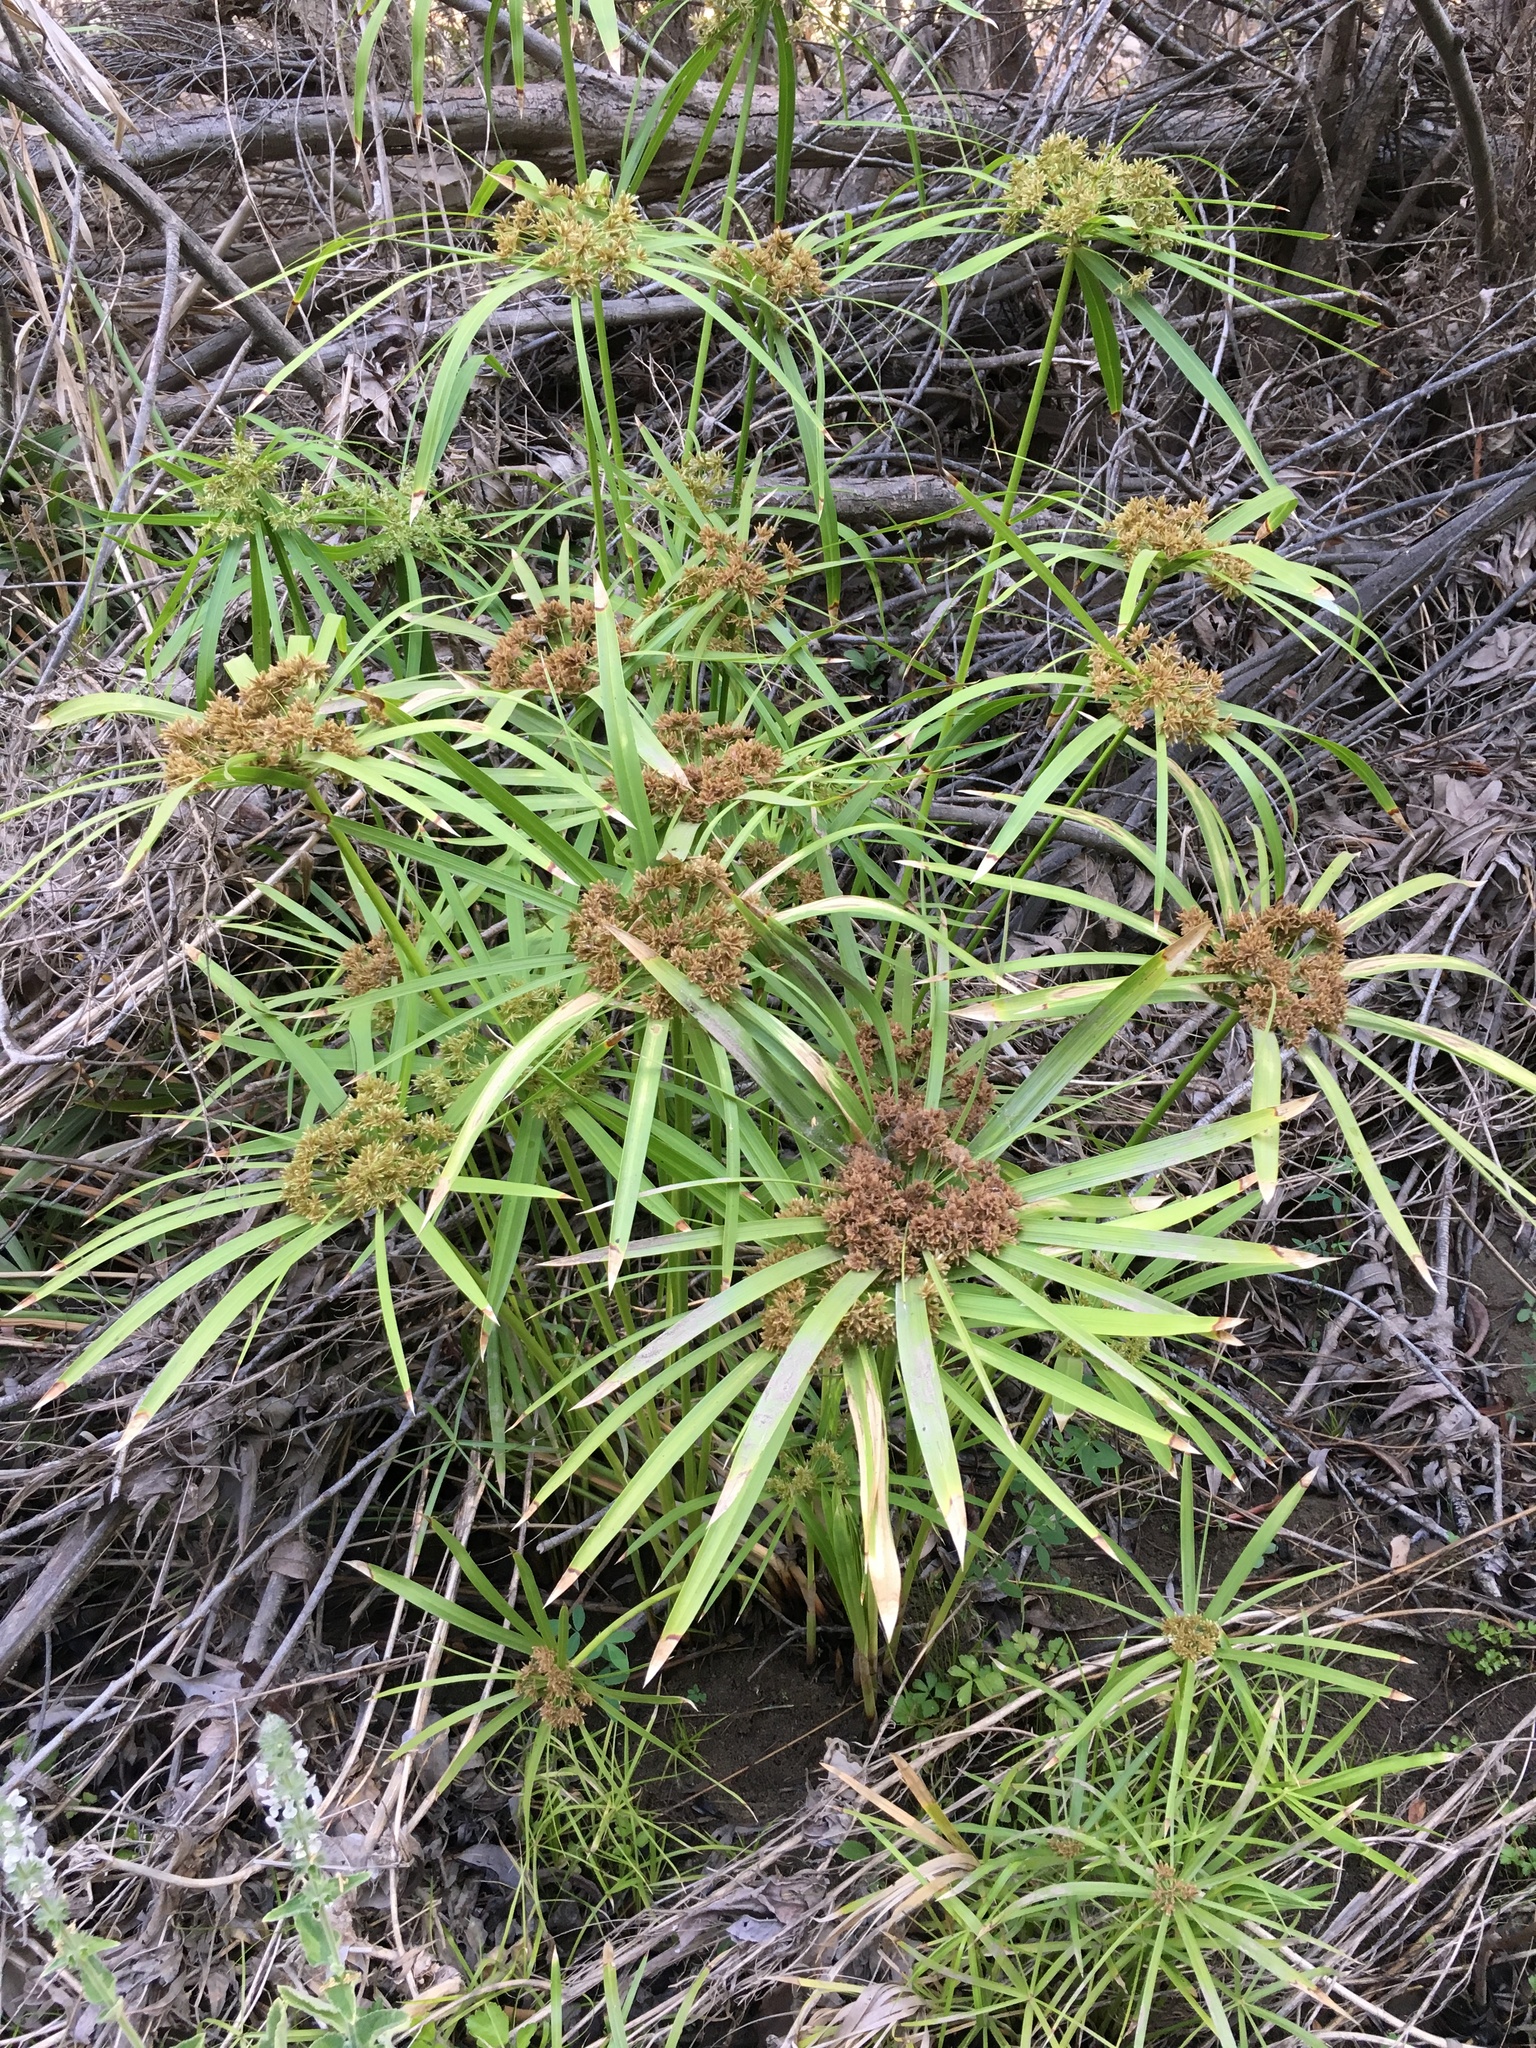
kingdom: Plantae
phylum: Tracheophyta
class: Liliopsida
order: Poales
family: Cyperaceae
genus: Cyperus
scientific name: Cyperus alternifolius
